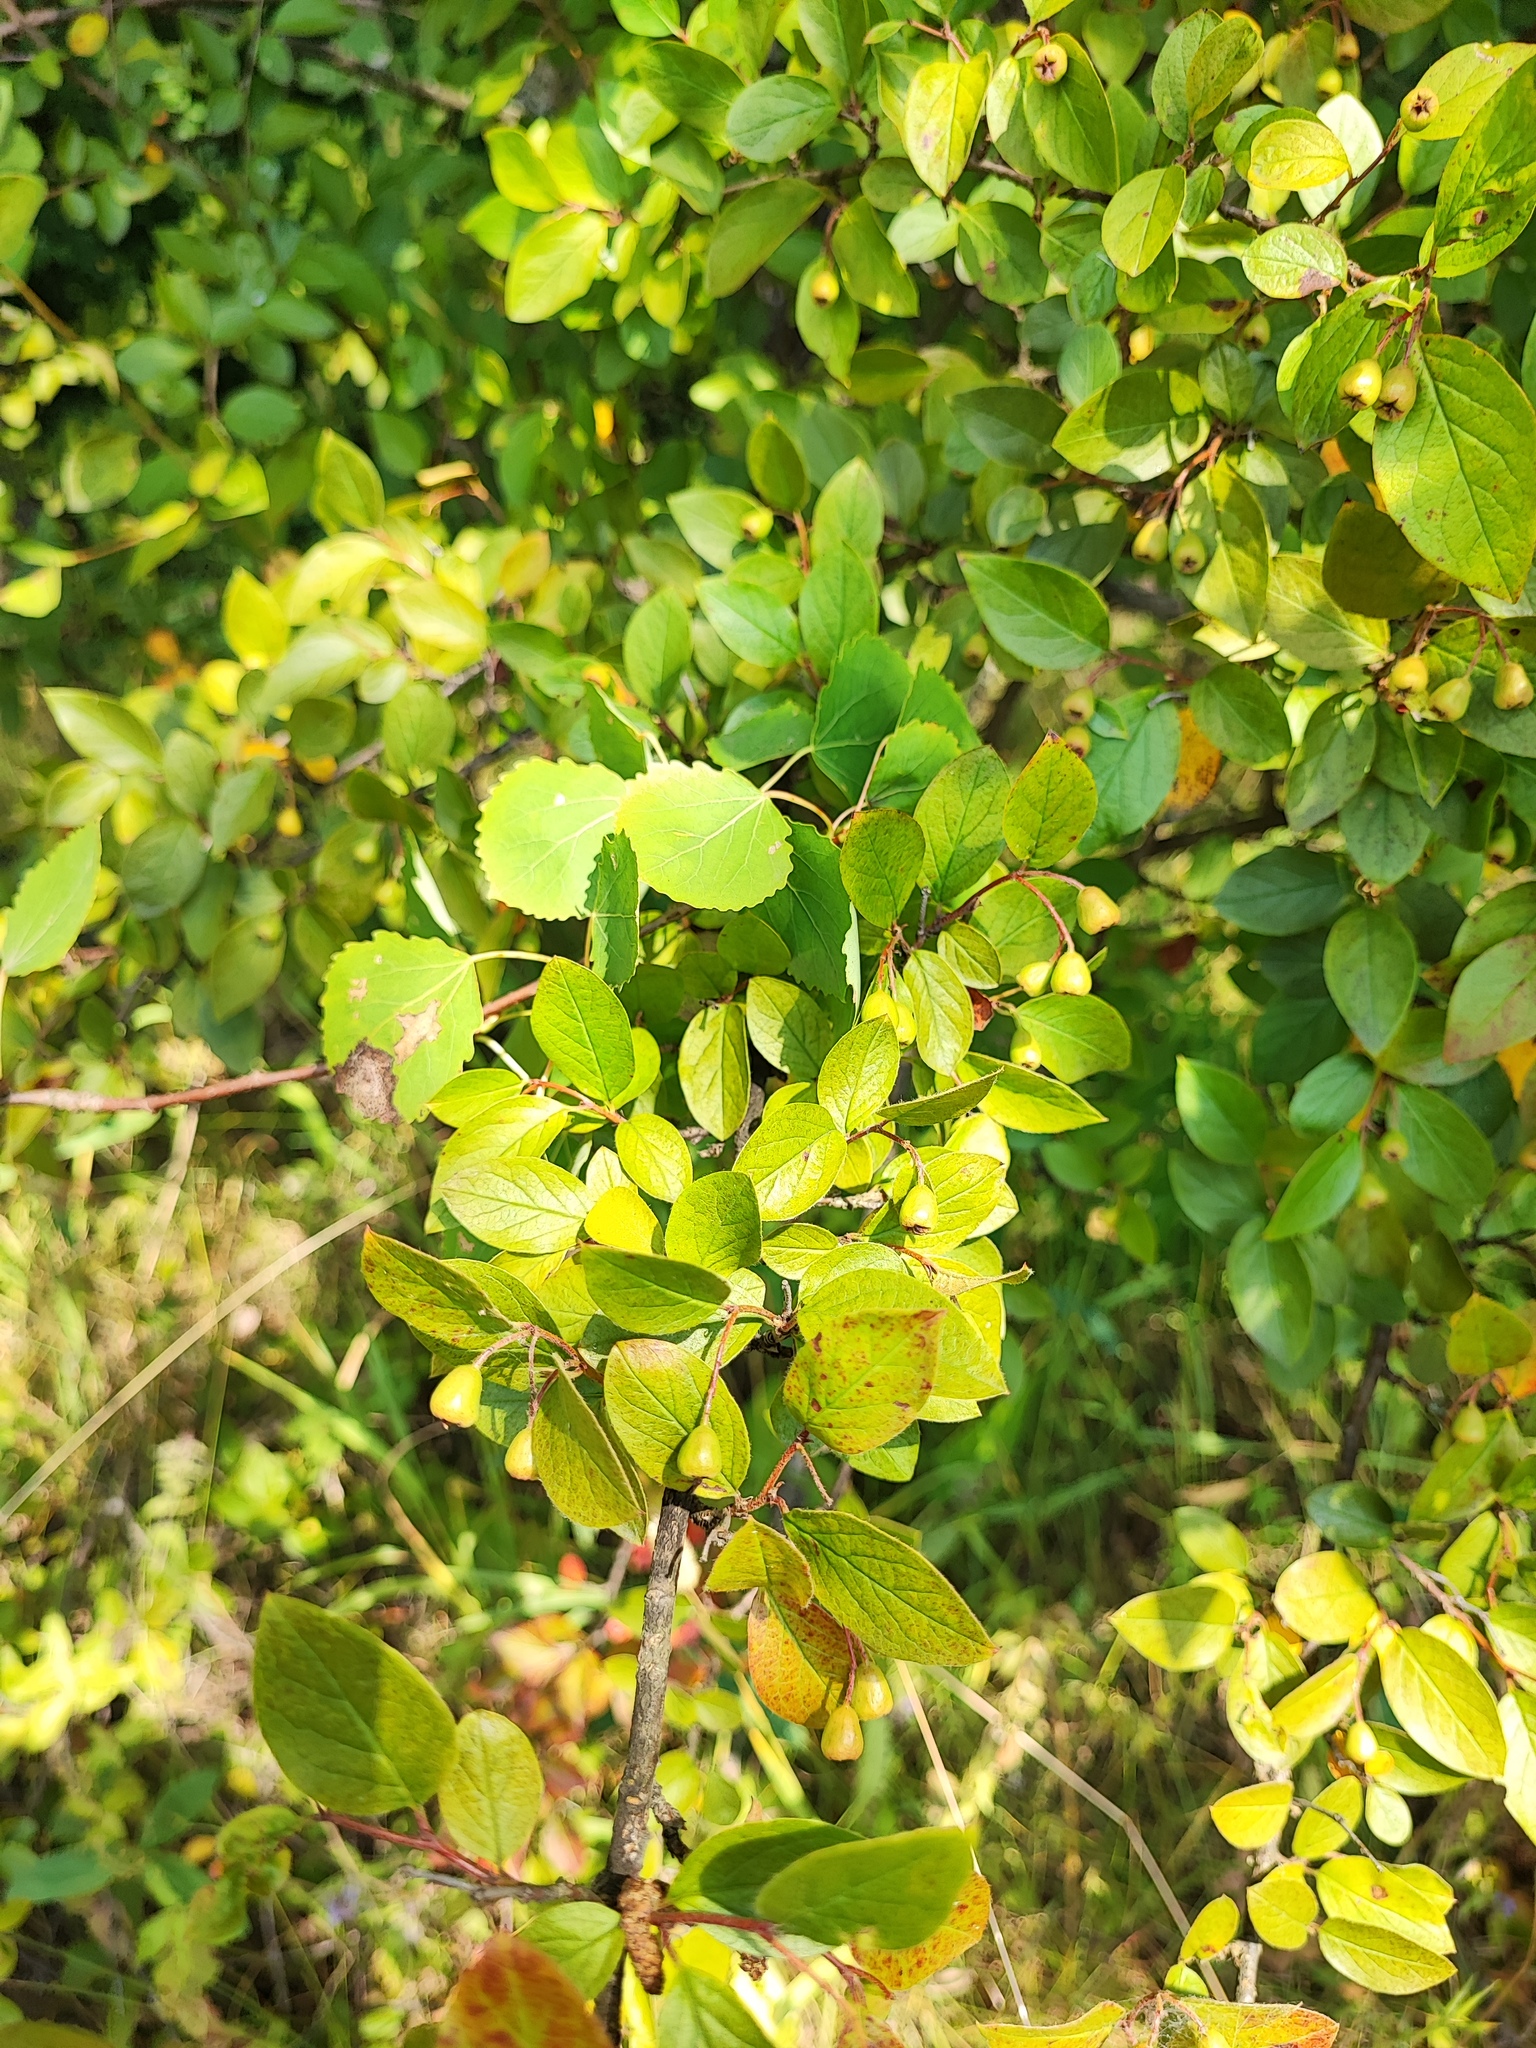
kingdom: Plantae
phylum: Tracheophyta
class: Magnoliopsida
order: Rosales
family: Rosaceae
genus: Amelanchier
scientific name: Amelanchier
